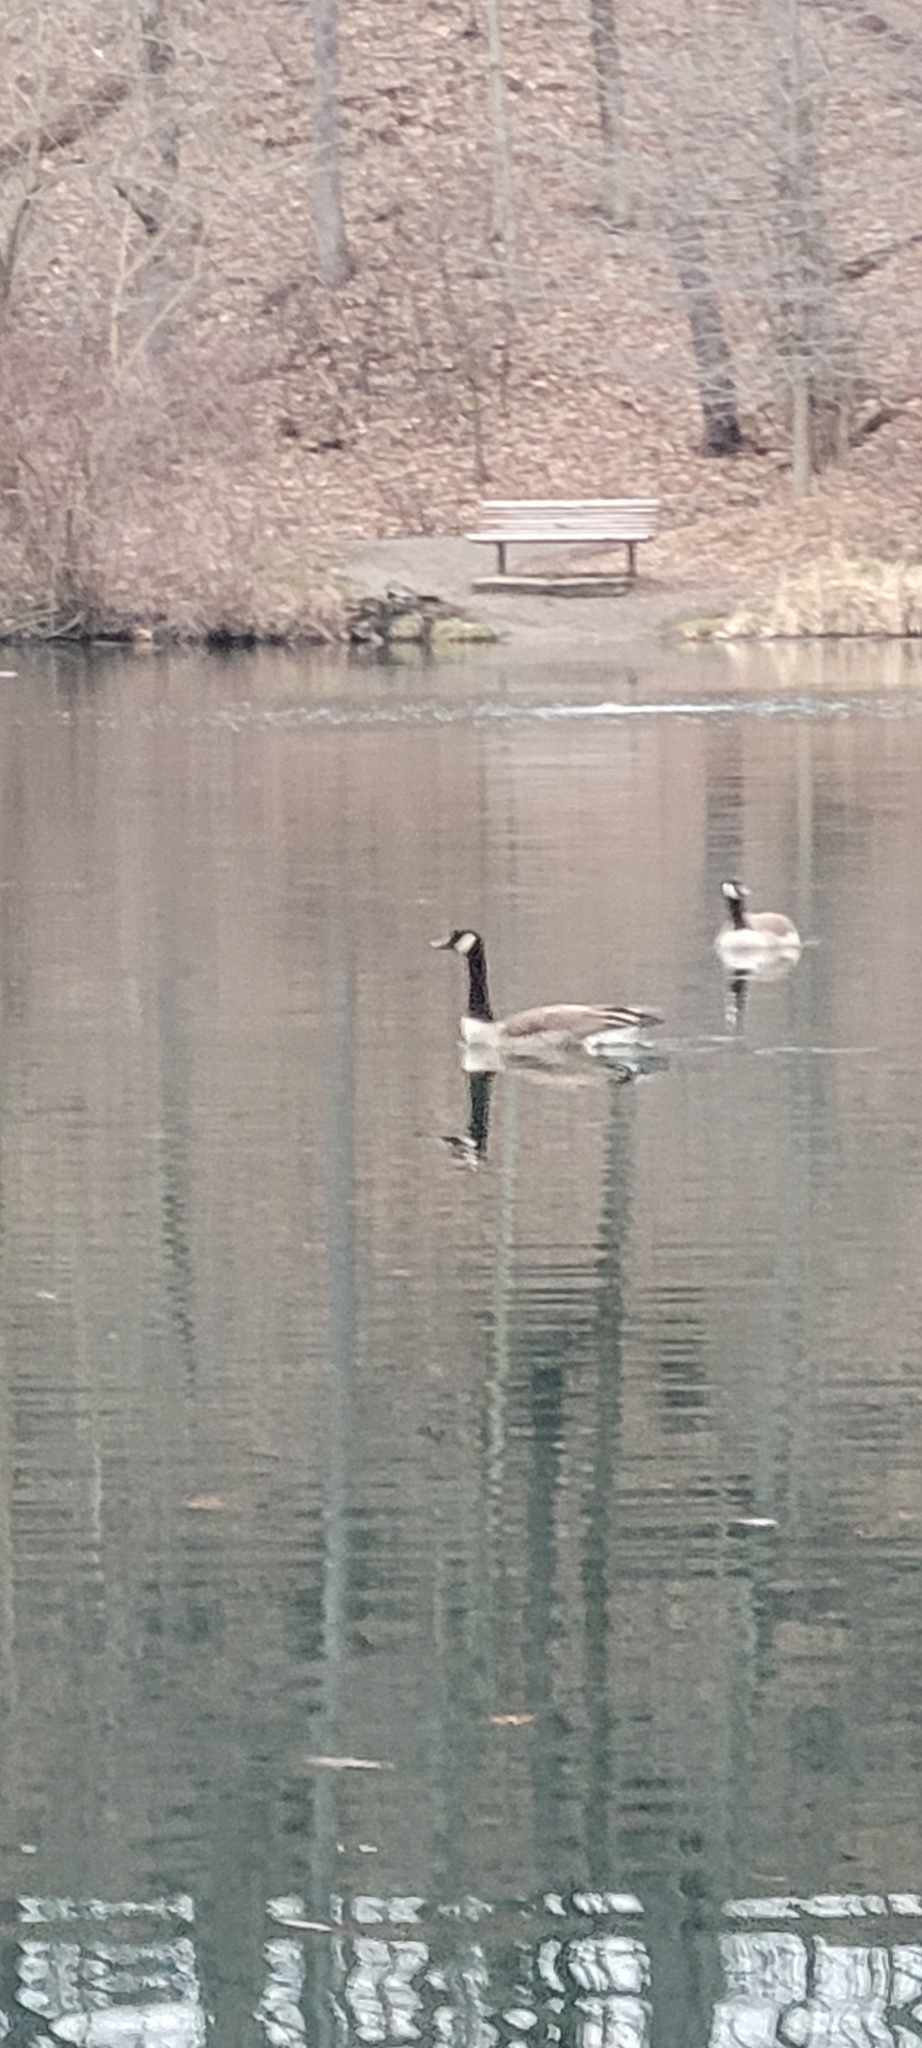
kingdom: Animalia
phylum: Chordata
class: Aves
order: Anseriformes
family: Anatidae
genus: Branta
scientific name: Branta canadensis
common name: Canada goose
